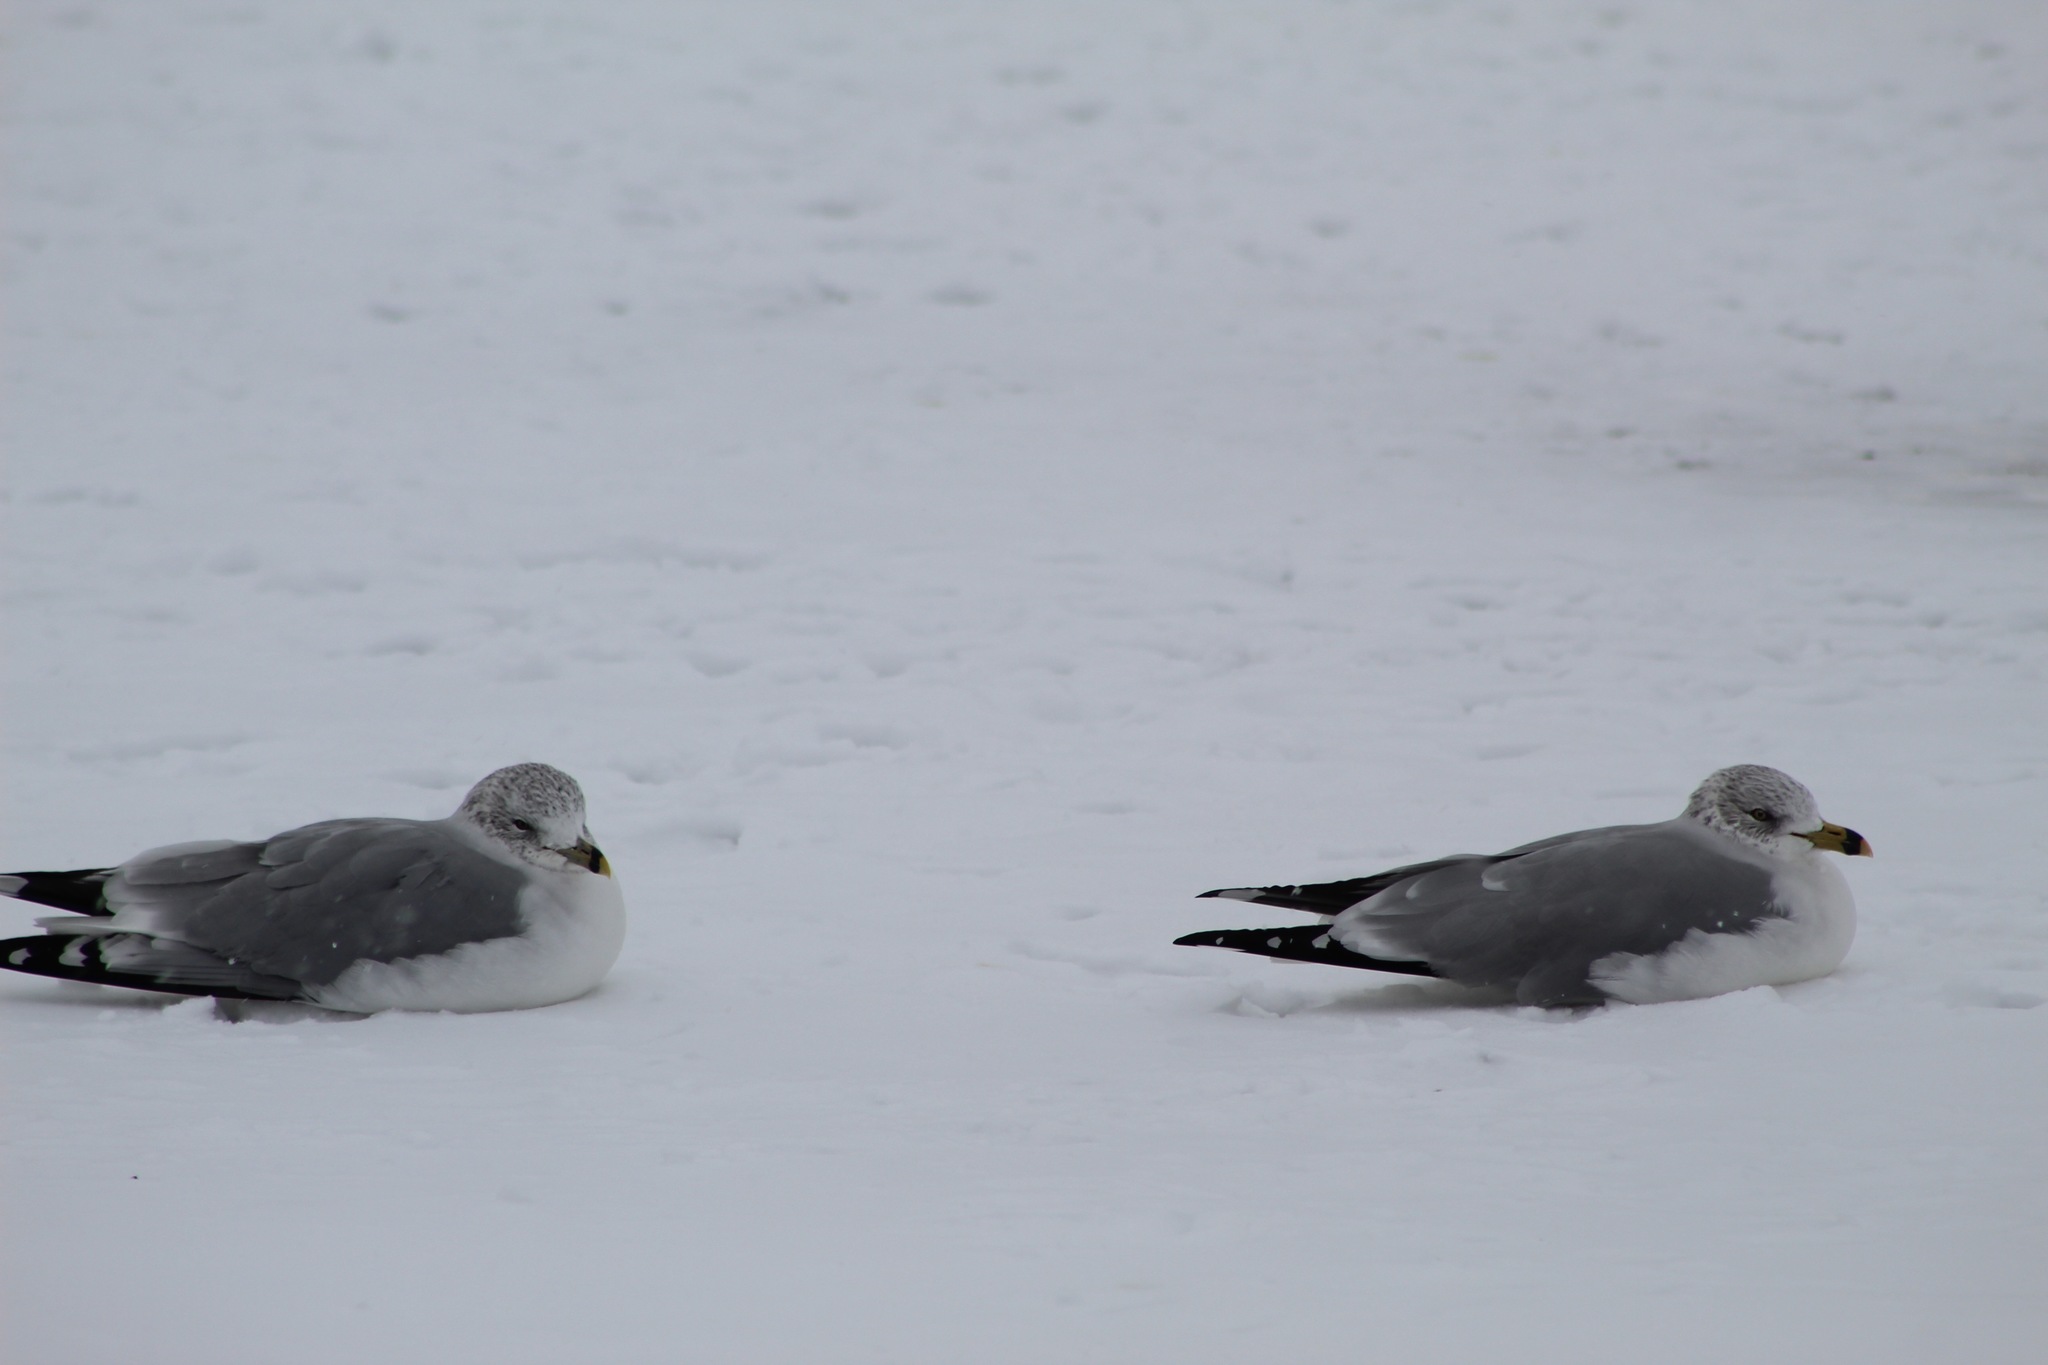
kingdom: Animalia
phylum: Chordata
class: Aves
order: Charadriiformes
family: Laridae
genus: Larus
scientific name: Larus delawarensis
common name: Ring-billed gull
